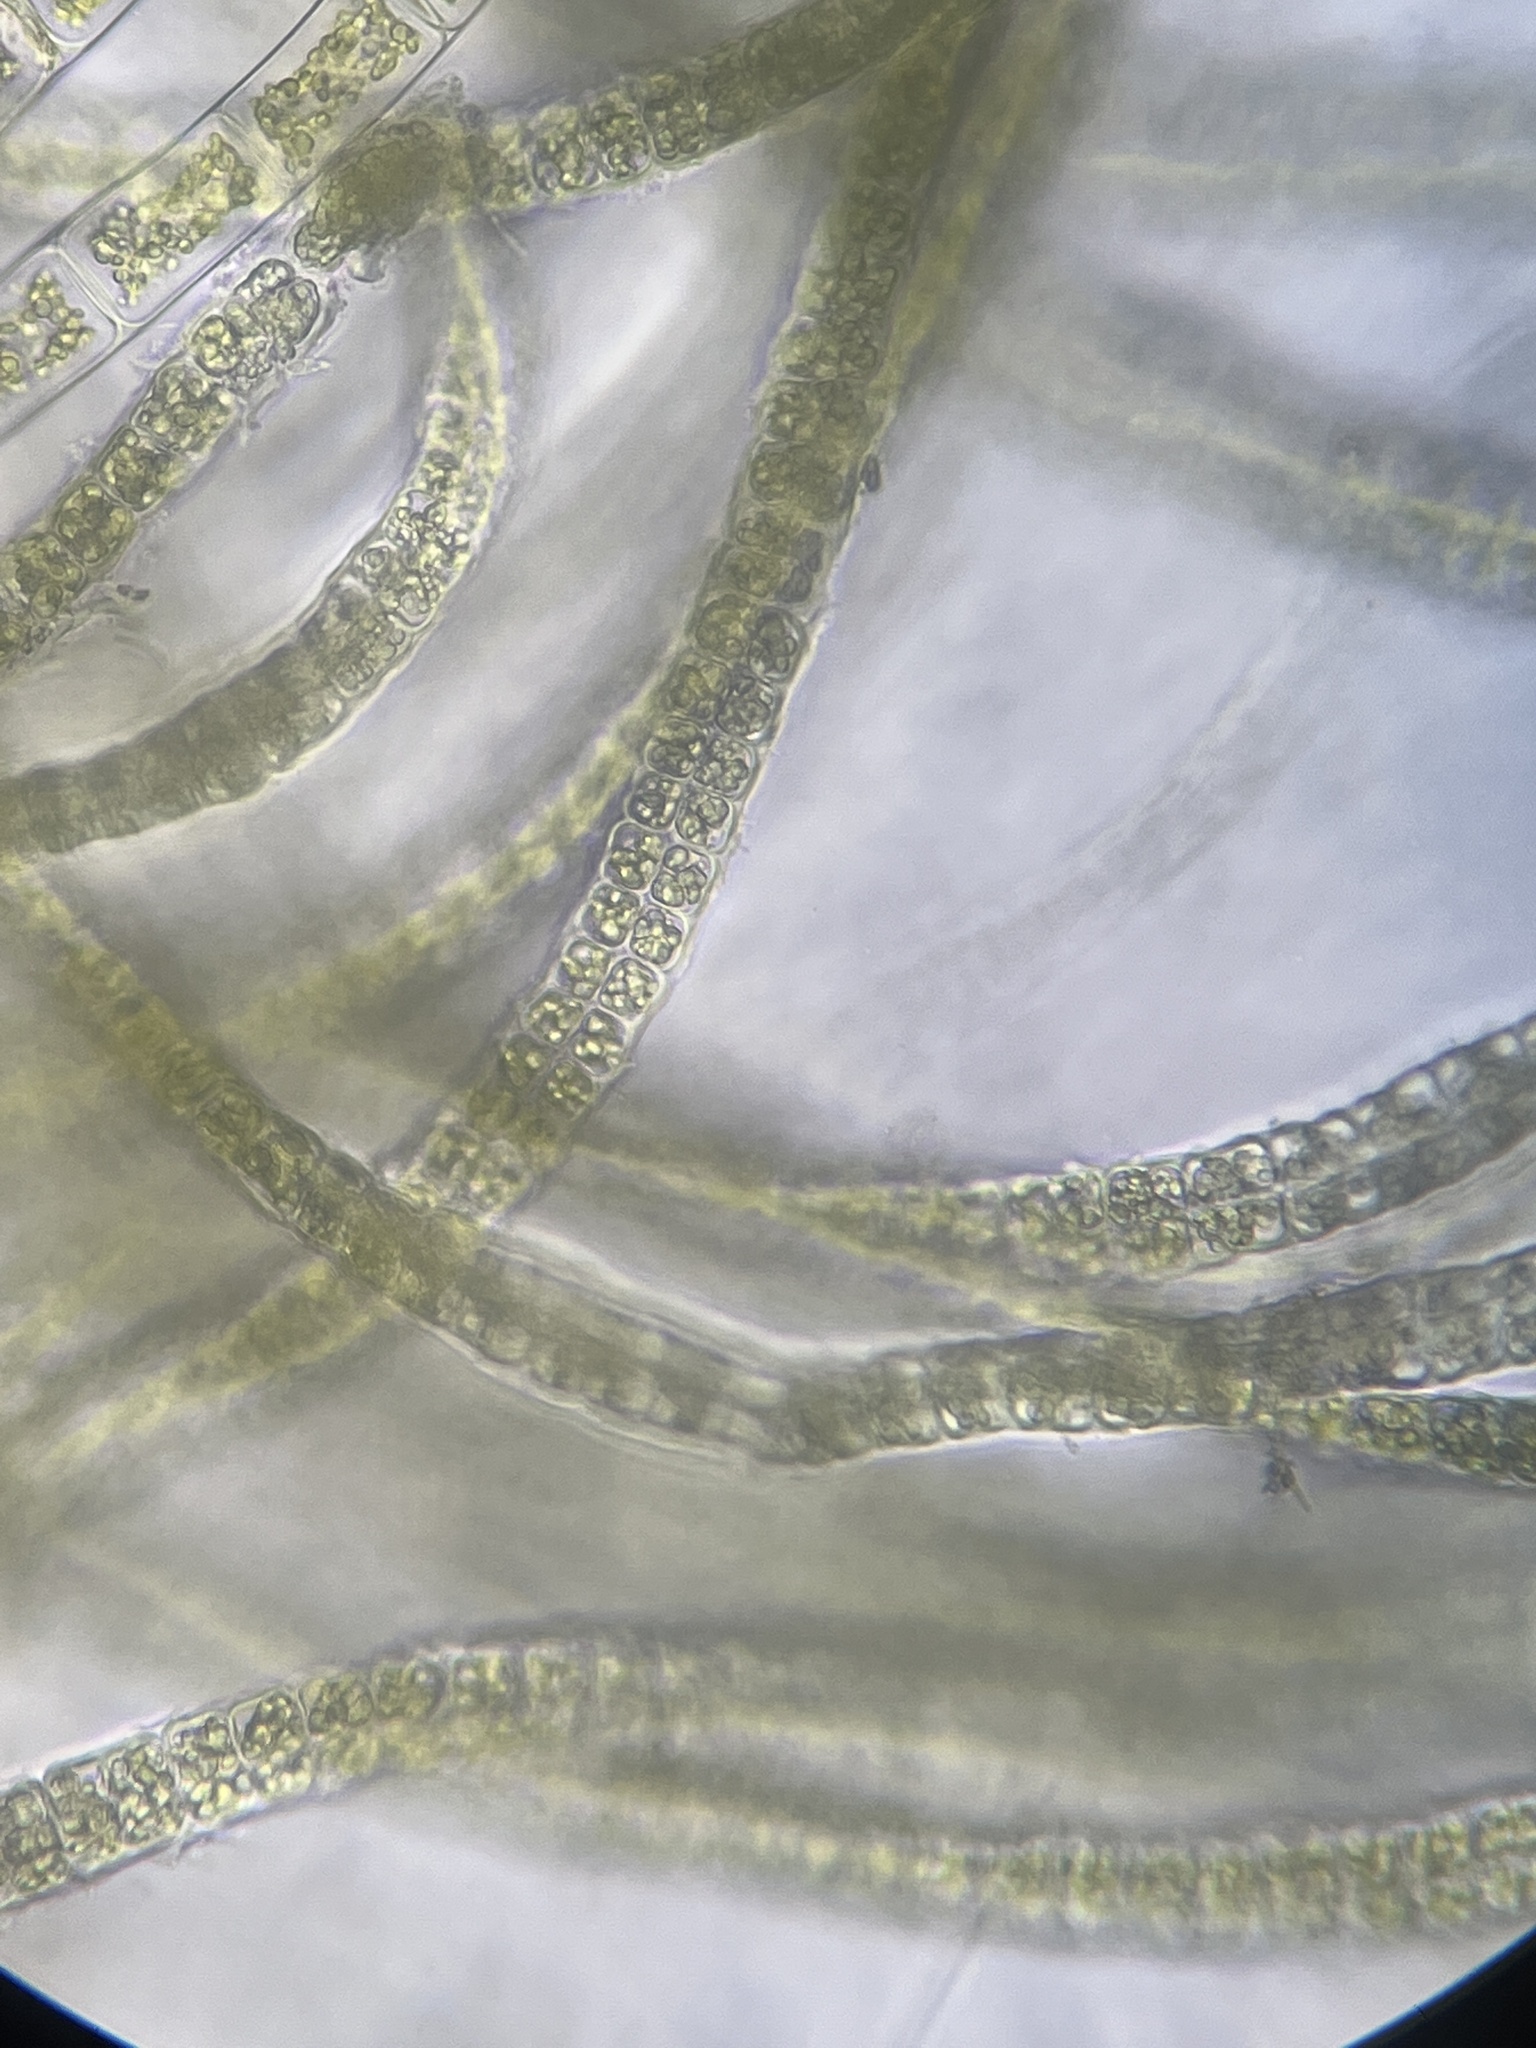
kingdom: Plantae
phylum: Chlorophyta
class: Ulvophyceae
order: Ulvales
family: Ulvaceae
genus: Percursaria
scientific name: Percursaria percursa
